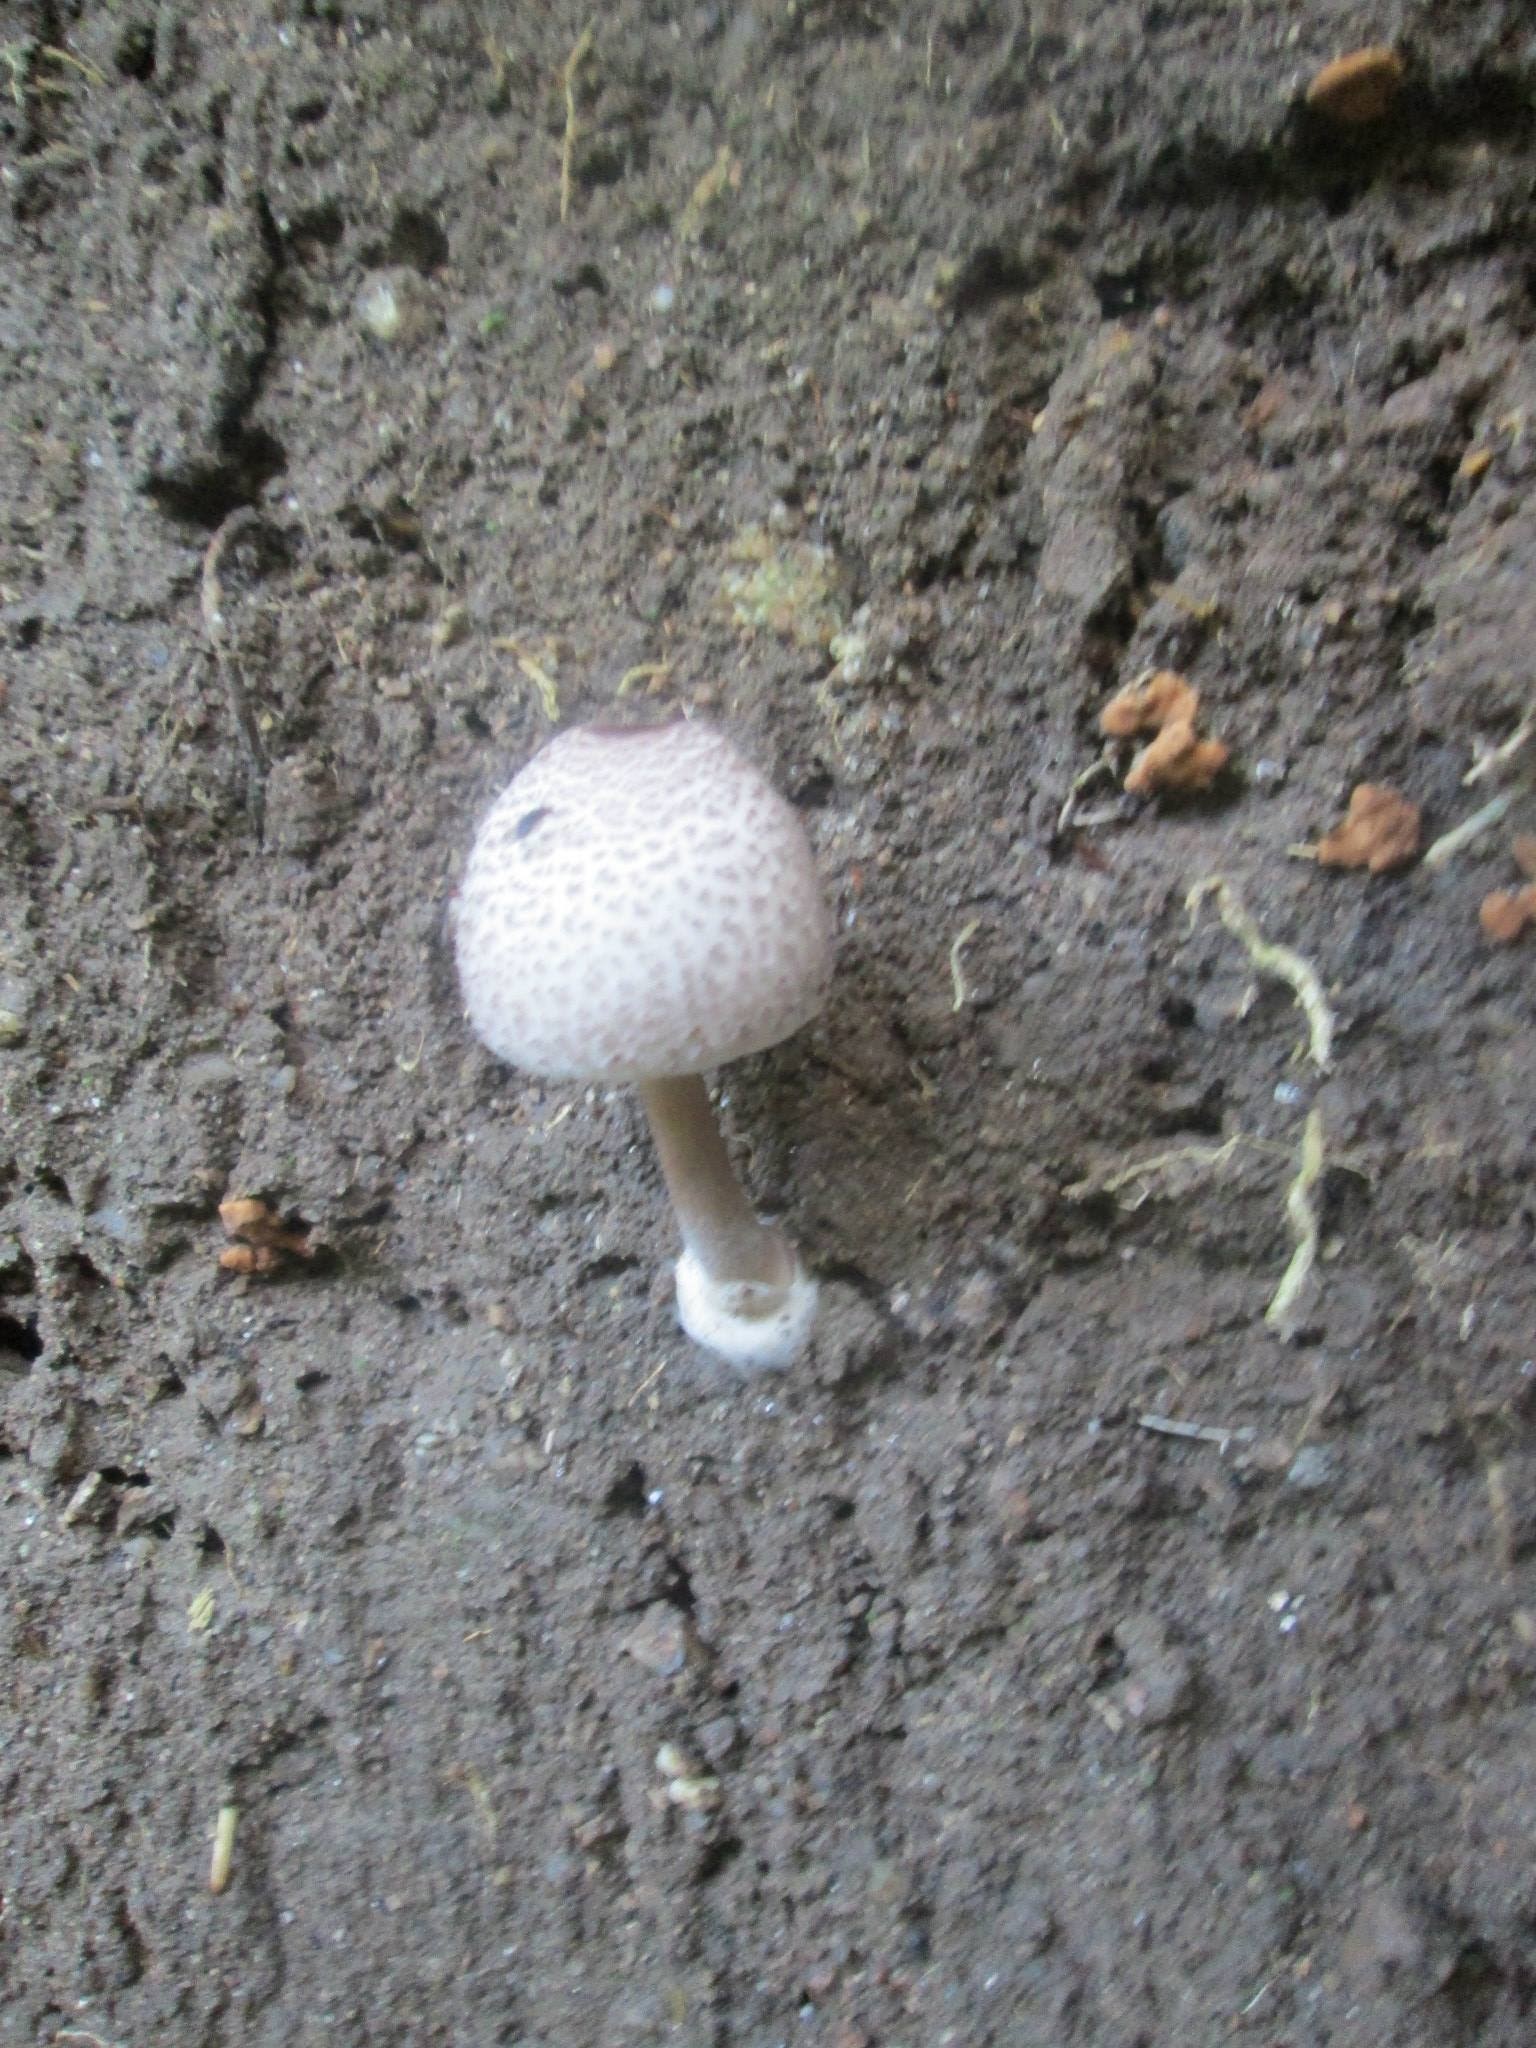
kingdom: Fungi
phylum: Basidiomycota
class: Agaricomycetes
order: Agaricales
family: Agaricaceae
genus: Macrolepiota
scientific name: Macrolepiota velosa
